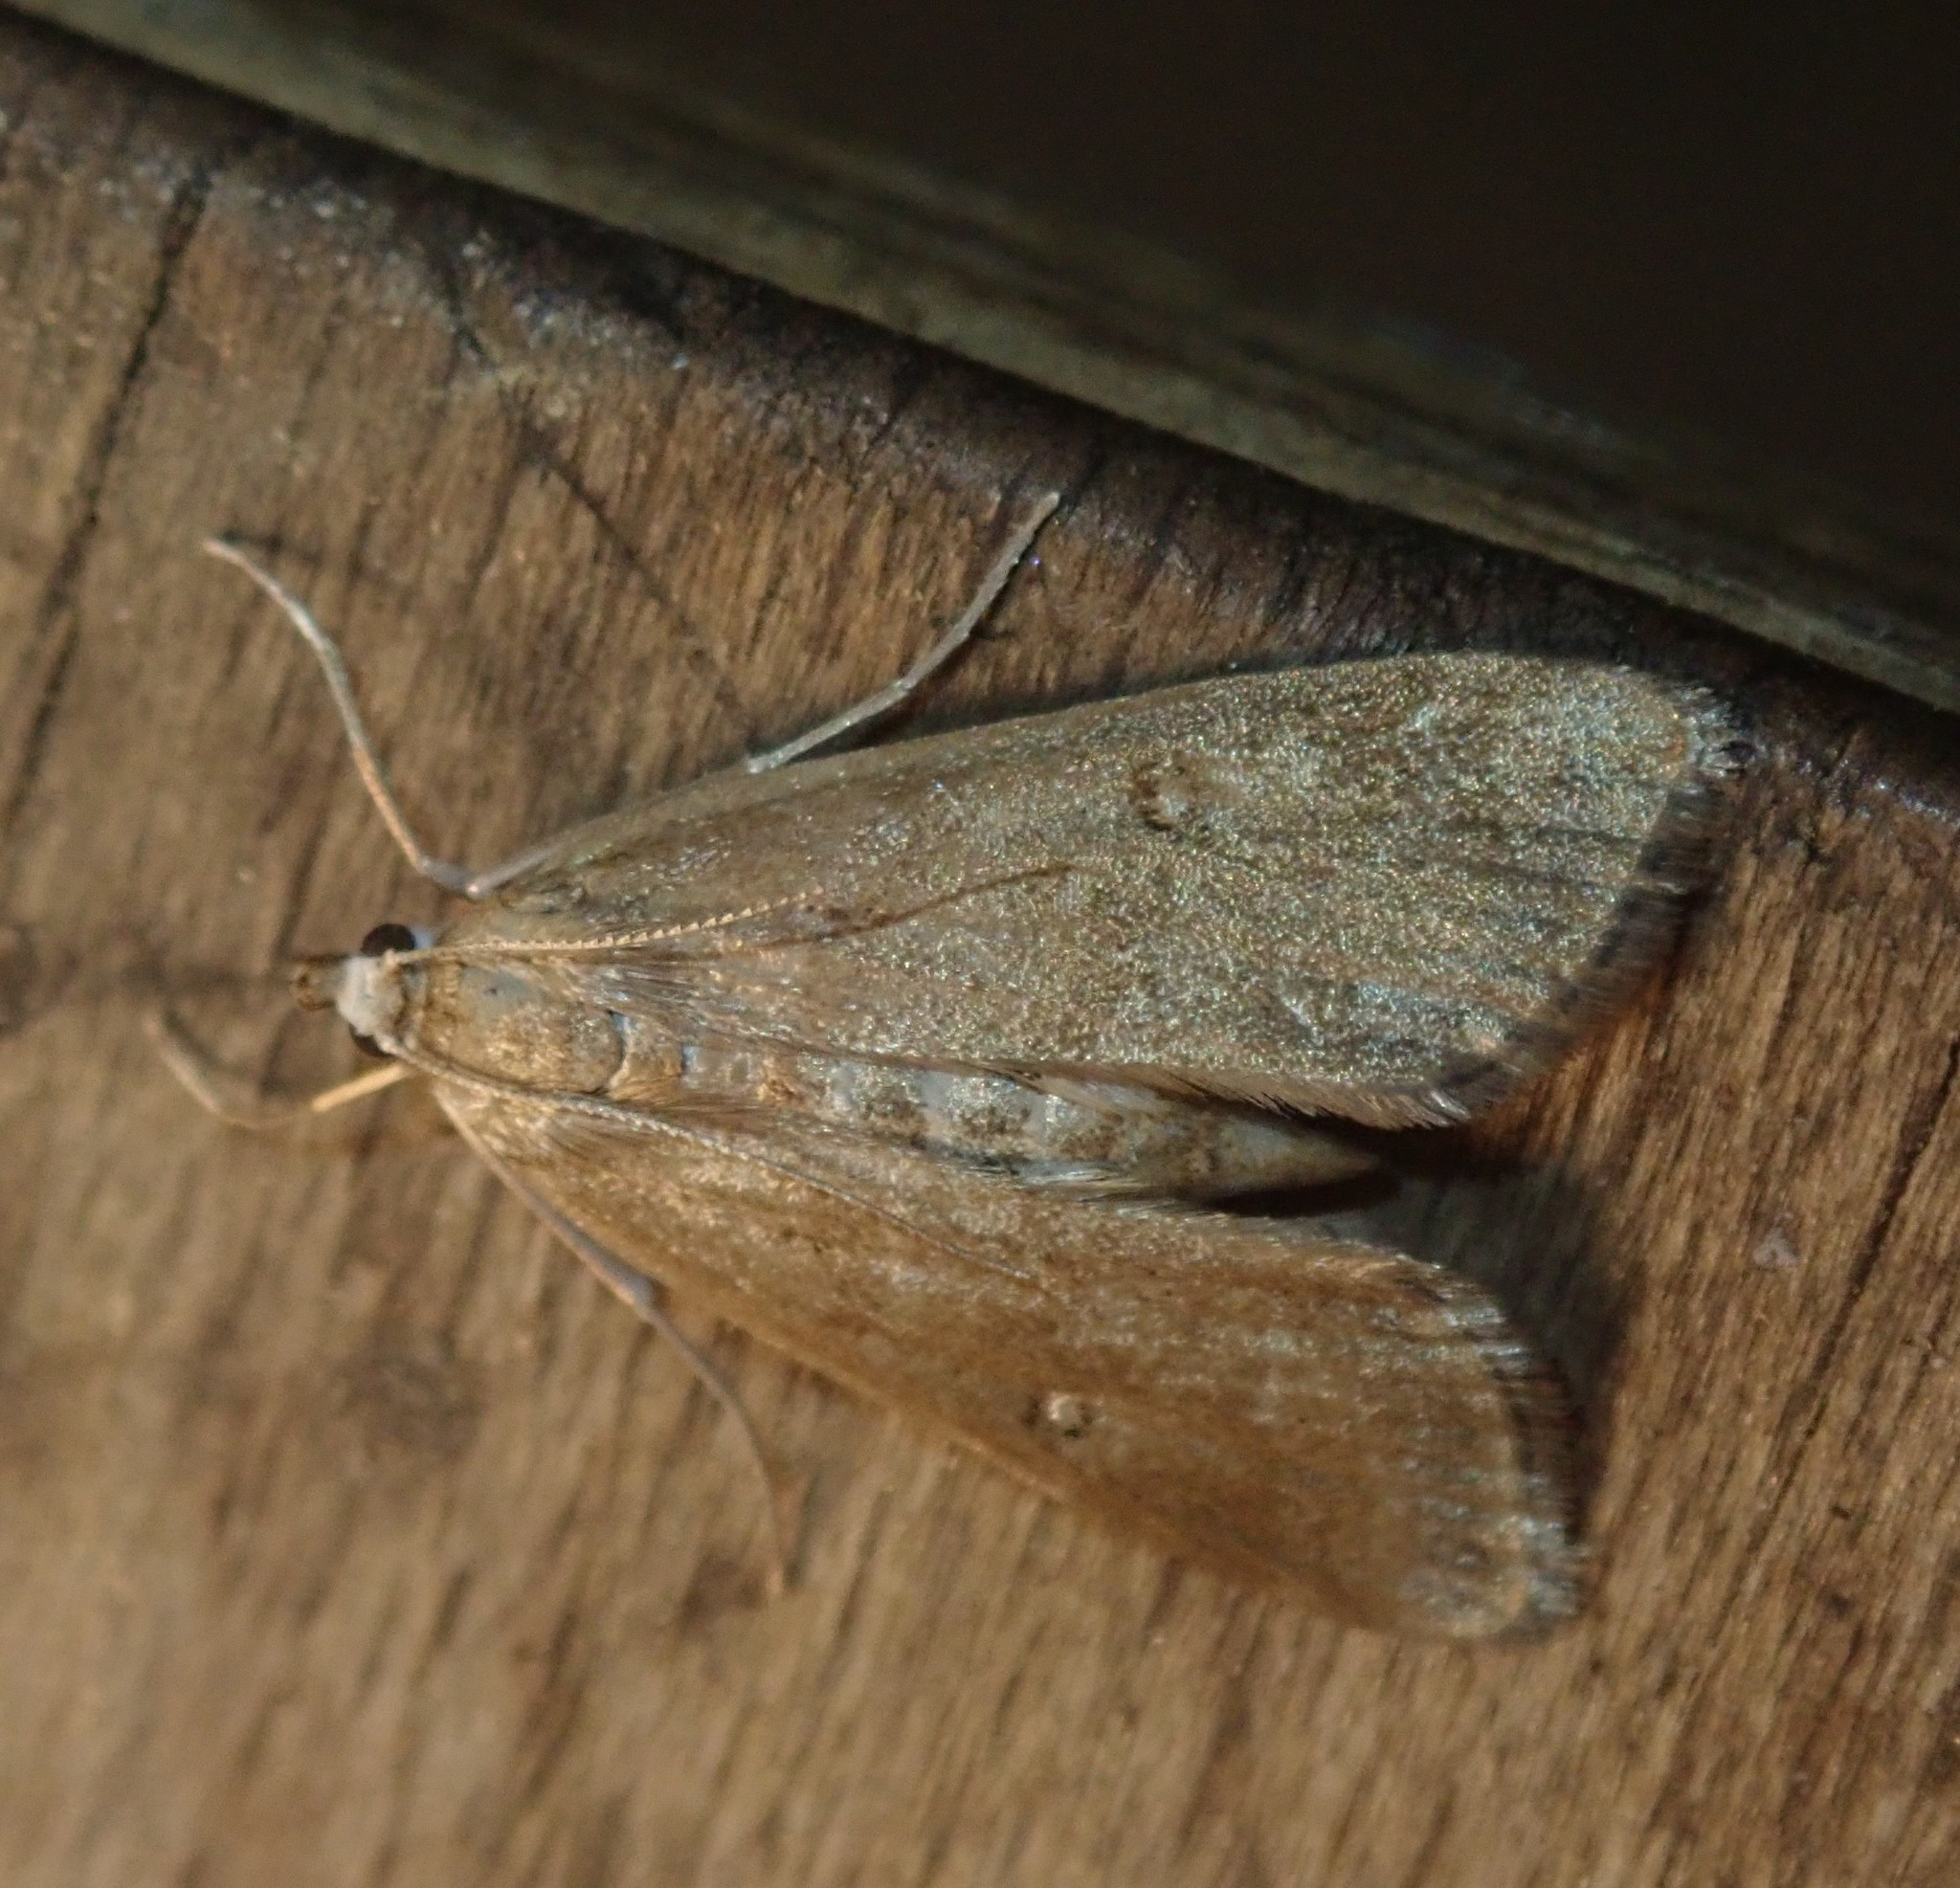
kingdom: Animalia
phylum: Arthropoda
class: Insecta
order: Lepidoptera
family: Crambidae
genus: Parapoynx
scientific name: Parapoynx stratiotata
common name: Ringed china-mark
